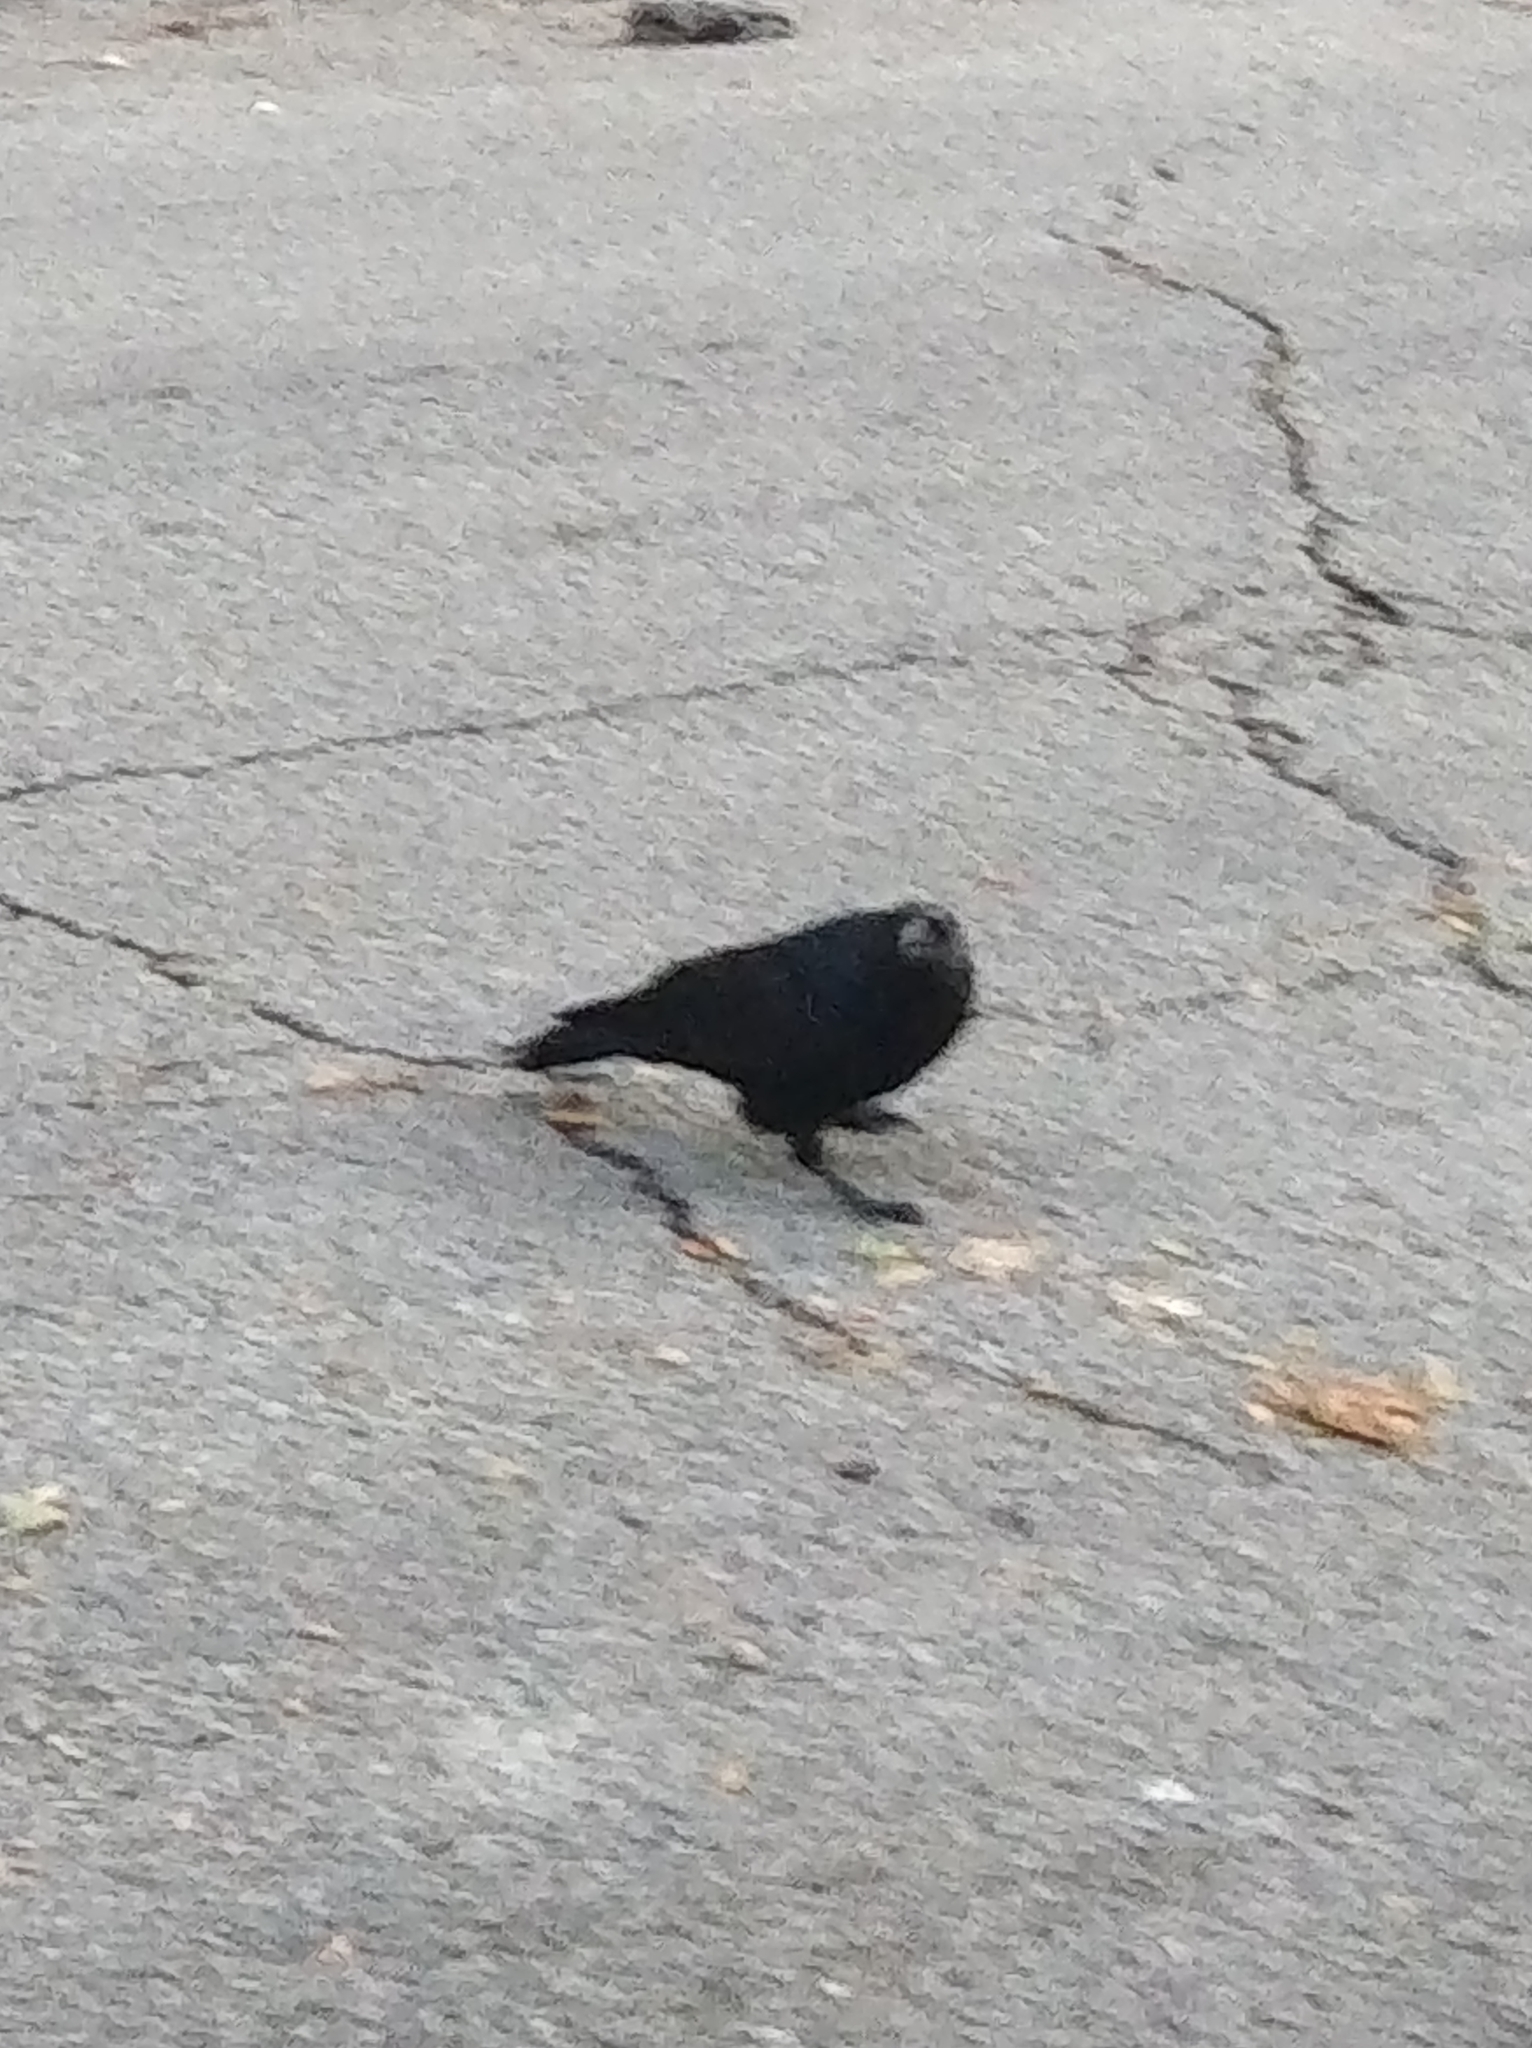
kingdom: Animalia
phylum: Chordata
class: Aves
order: Passeriformes
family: Corvidae
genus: Corvus
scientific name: Corvus brachyrhynchos
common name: American crow
